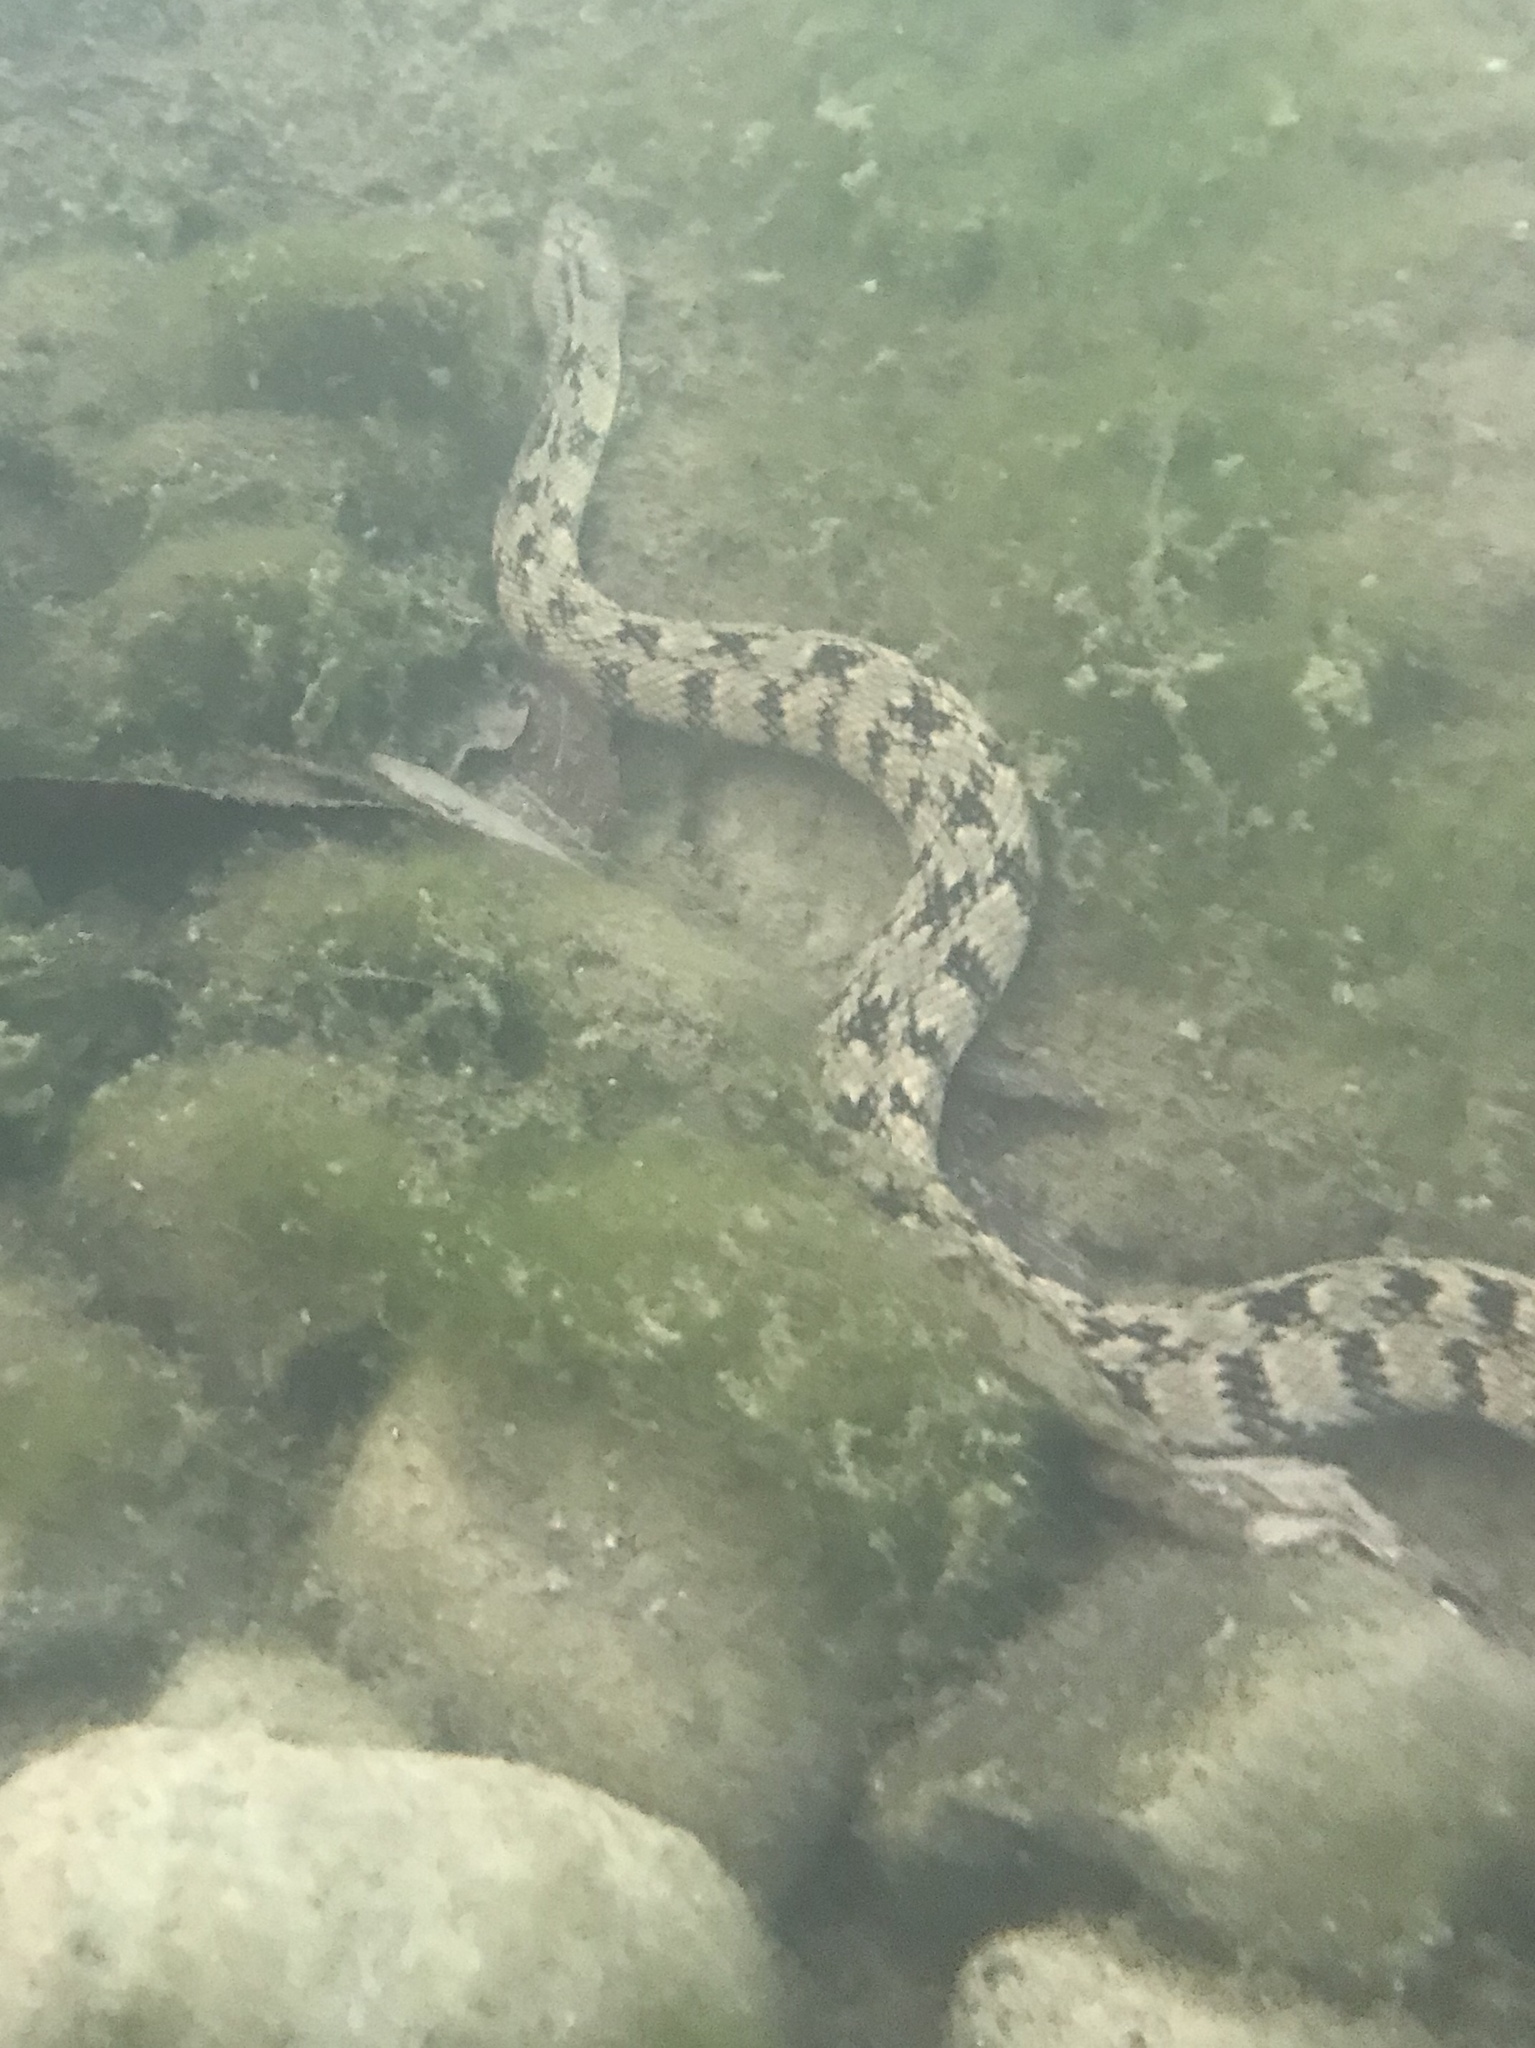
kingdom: Animalia
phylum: Chordata
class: Squamata
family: Colubridae
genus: Nerodia
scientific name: Nerodia rhombifer
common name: Diamondback water snake
